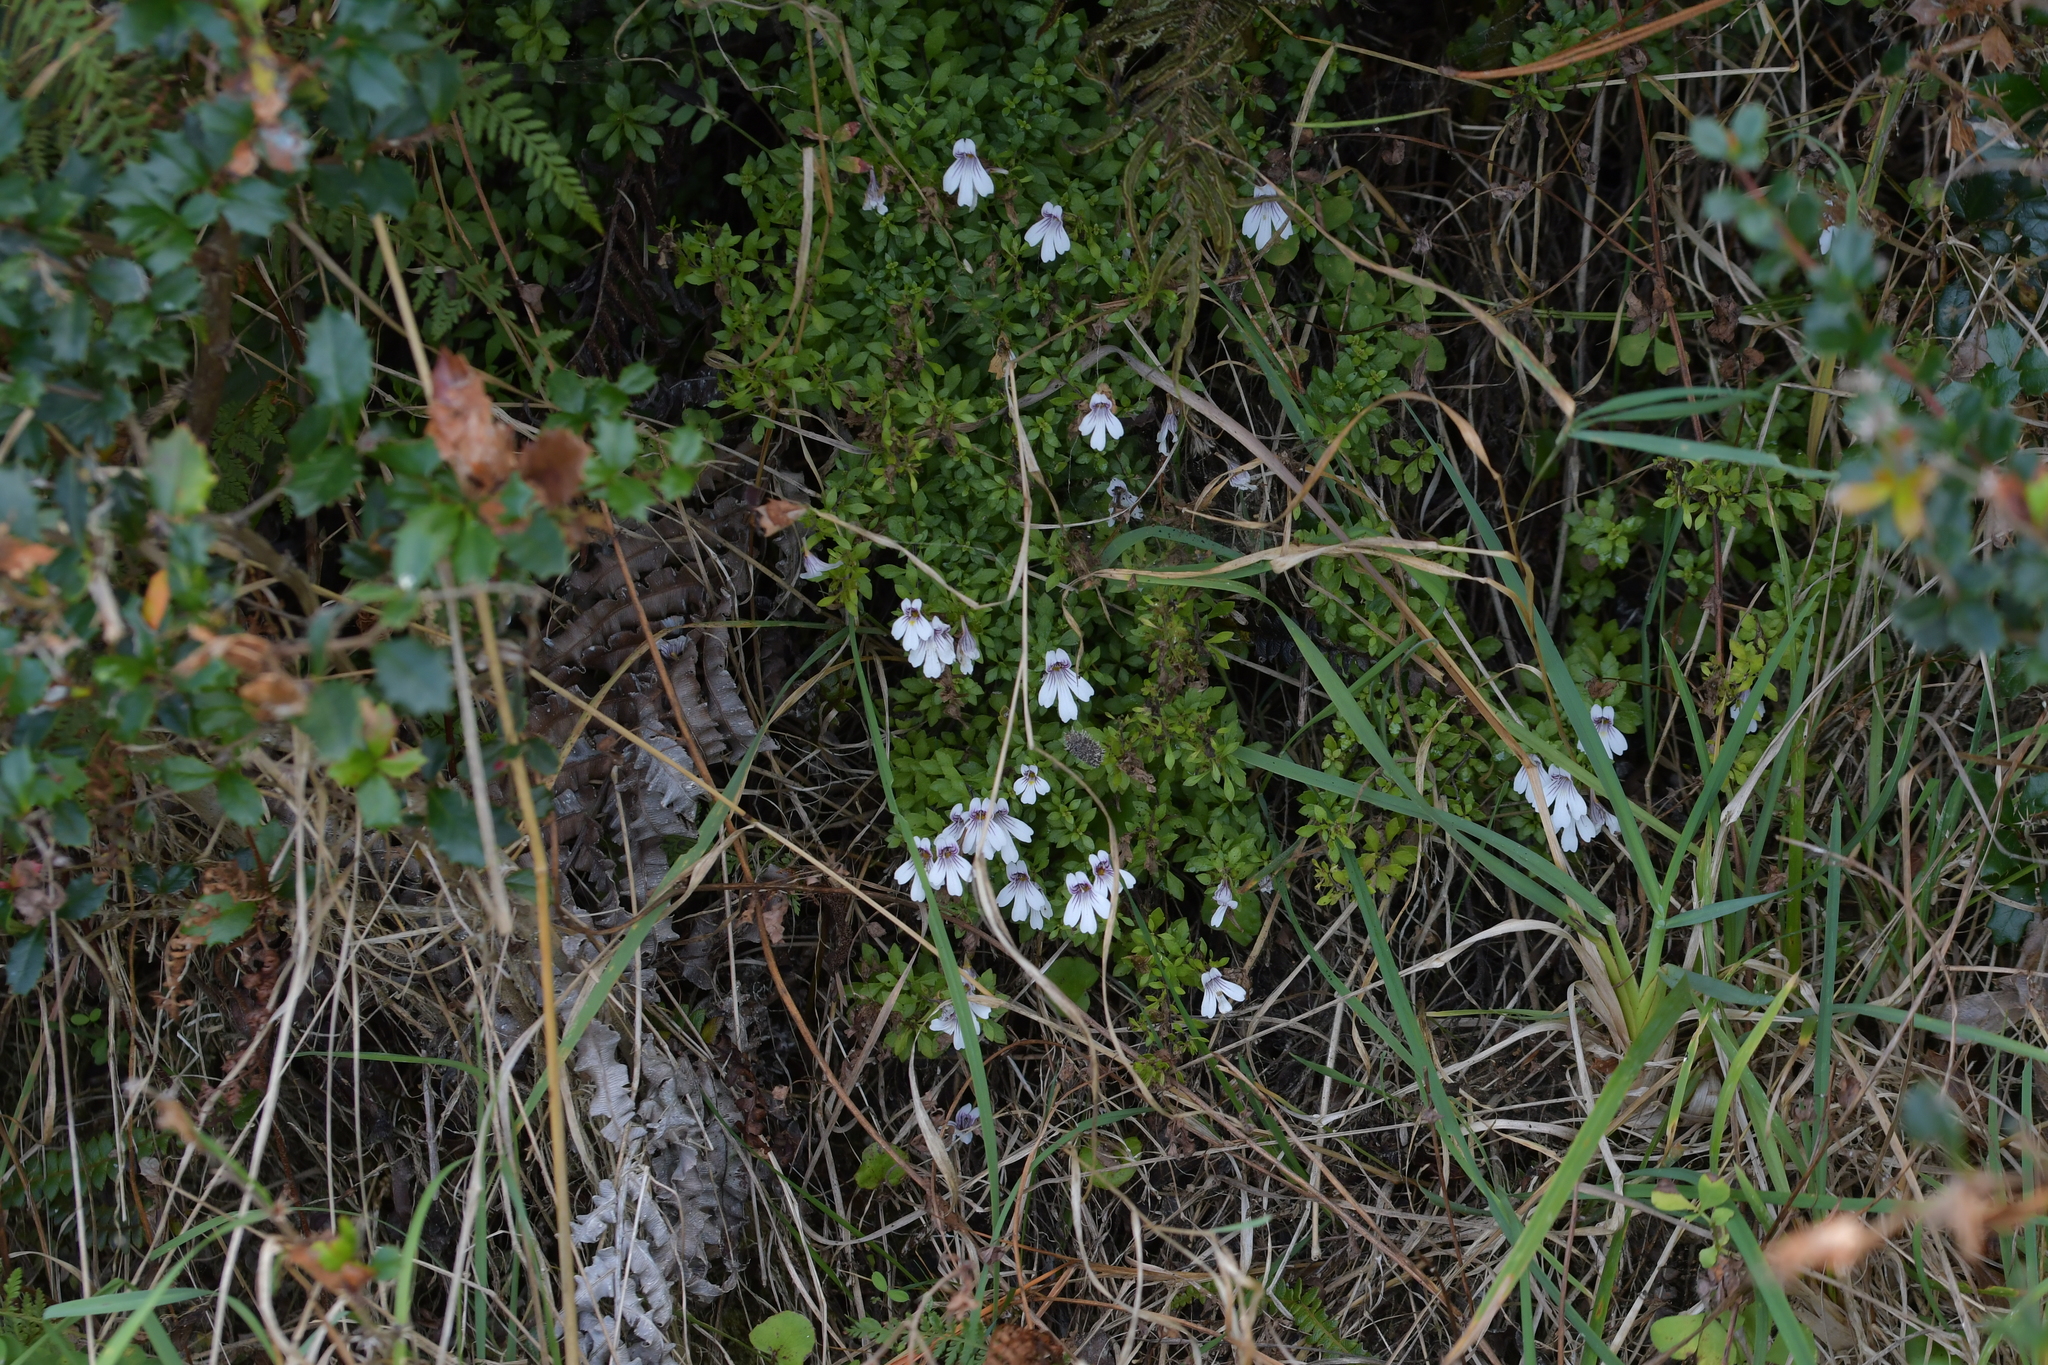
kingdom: Plantae
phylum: Tracheophyta
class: Magnoliopsida
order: Lamiales
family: Orobanchaceae
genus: Euphrasia
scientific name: Euphrasia cuneata
